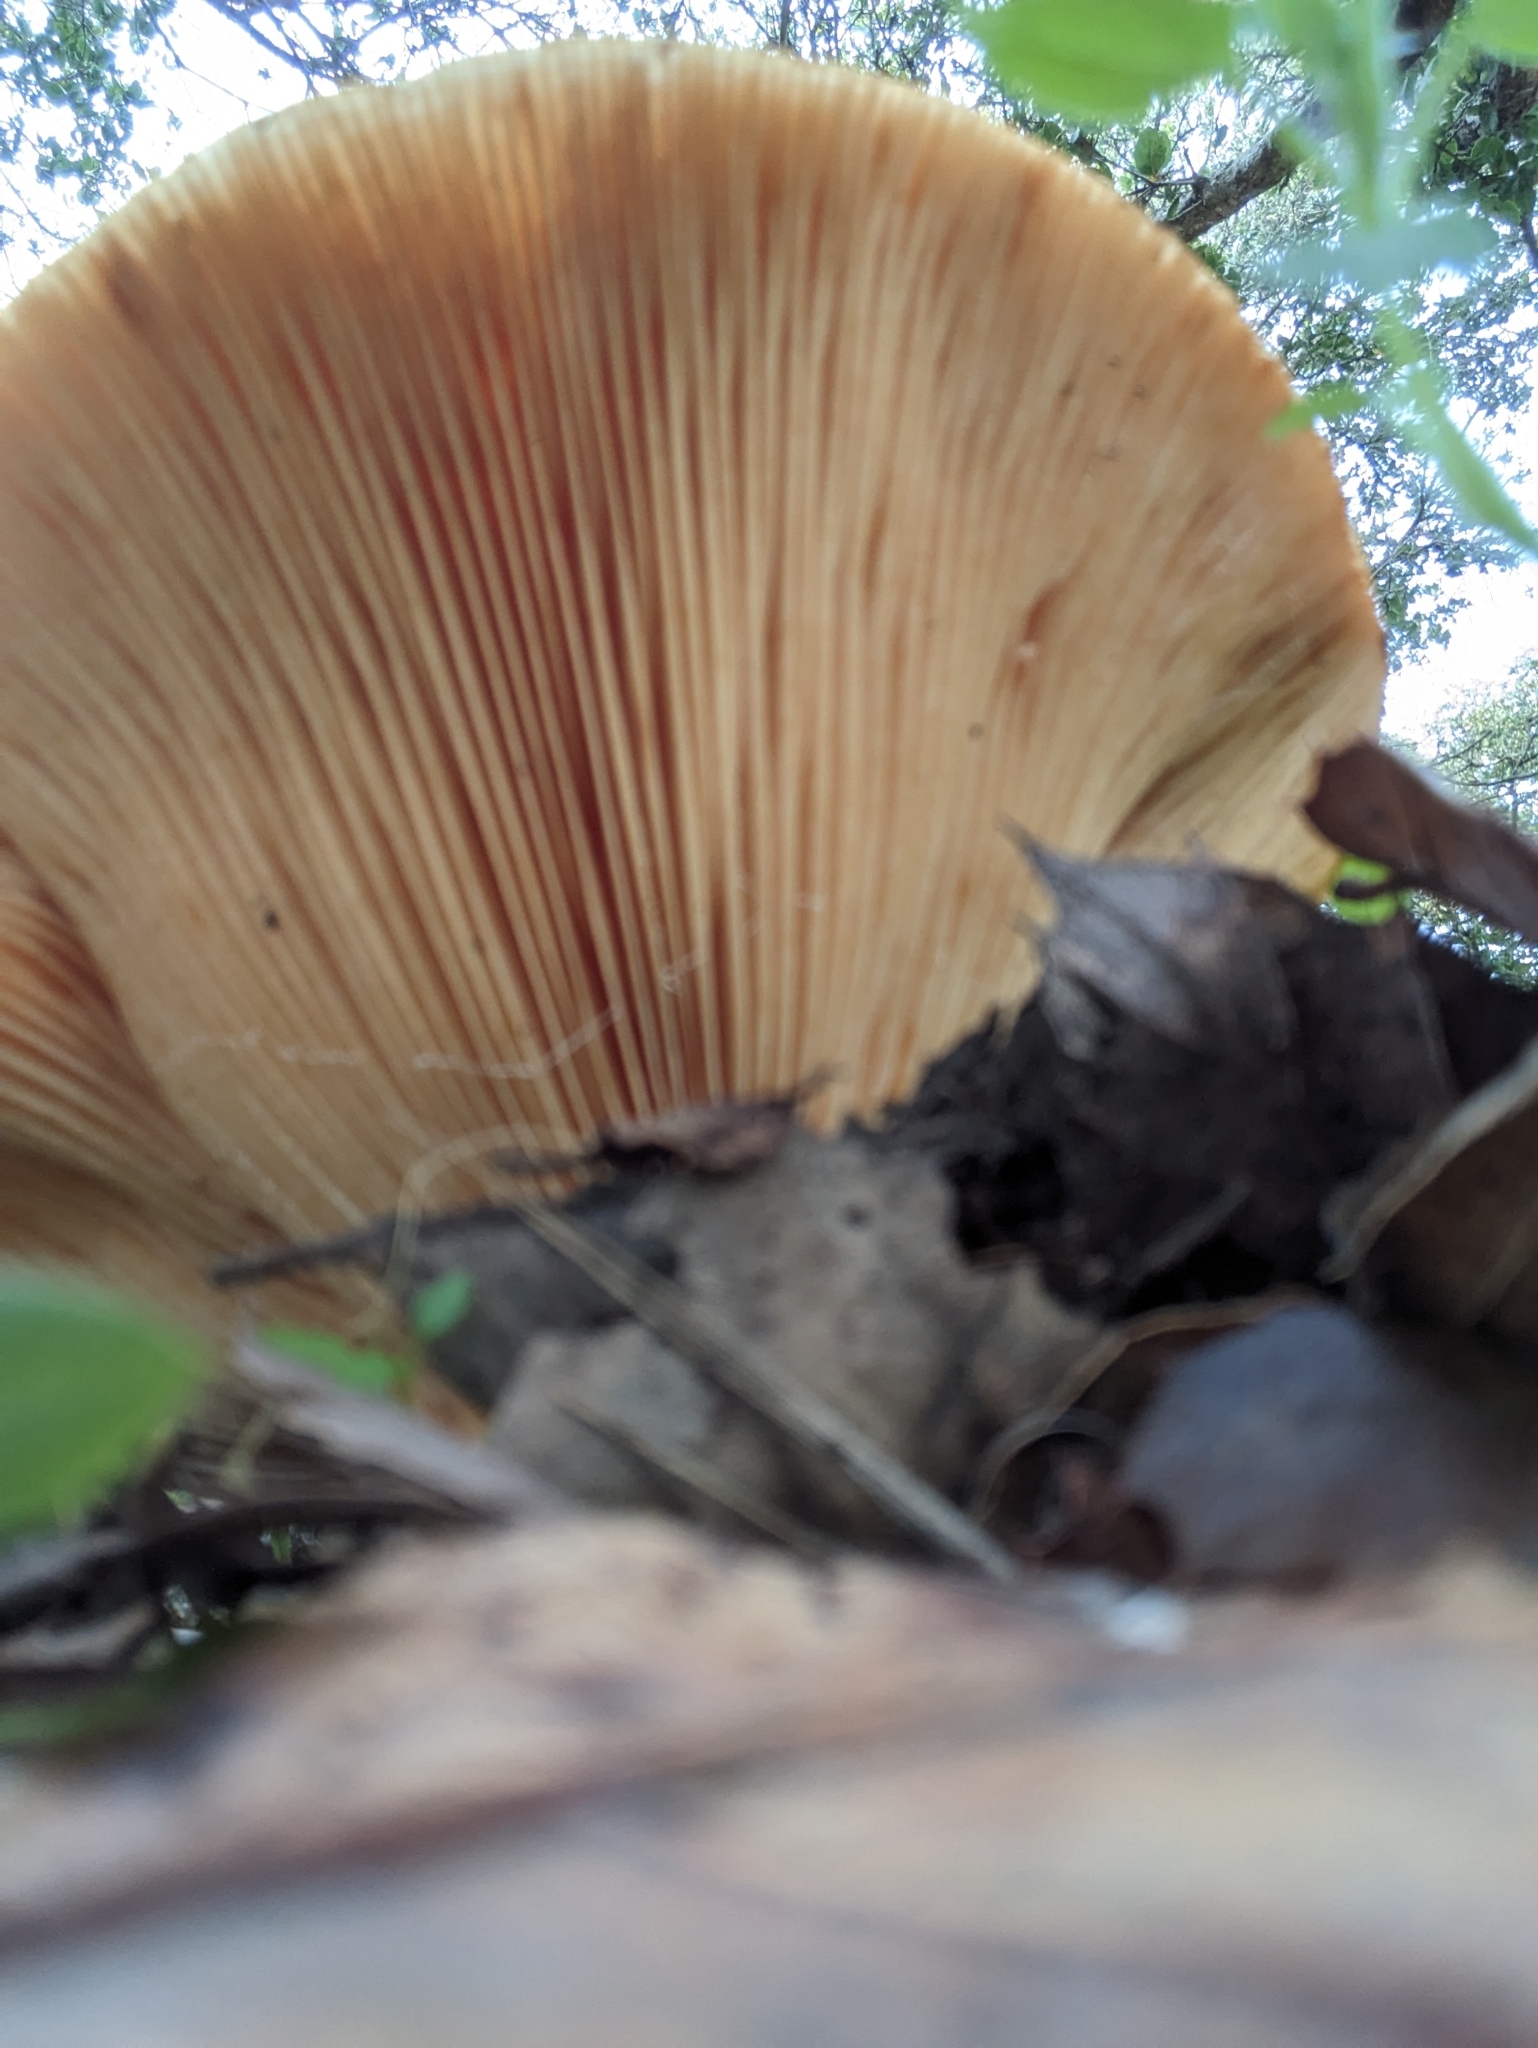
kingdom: Fungi
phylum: Basidiomycota
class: Agaricomycetes
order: Russulales
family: Russulaceae
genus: Lactarius
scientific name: Lactarius alnicola
